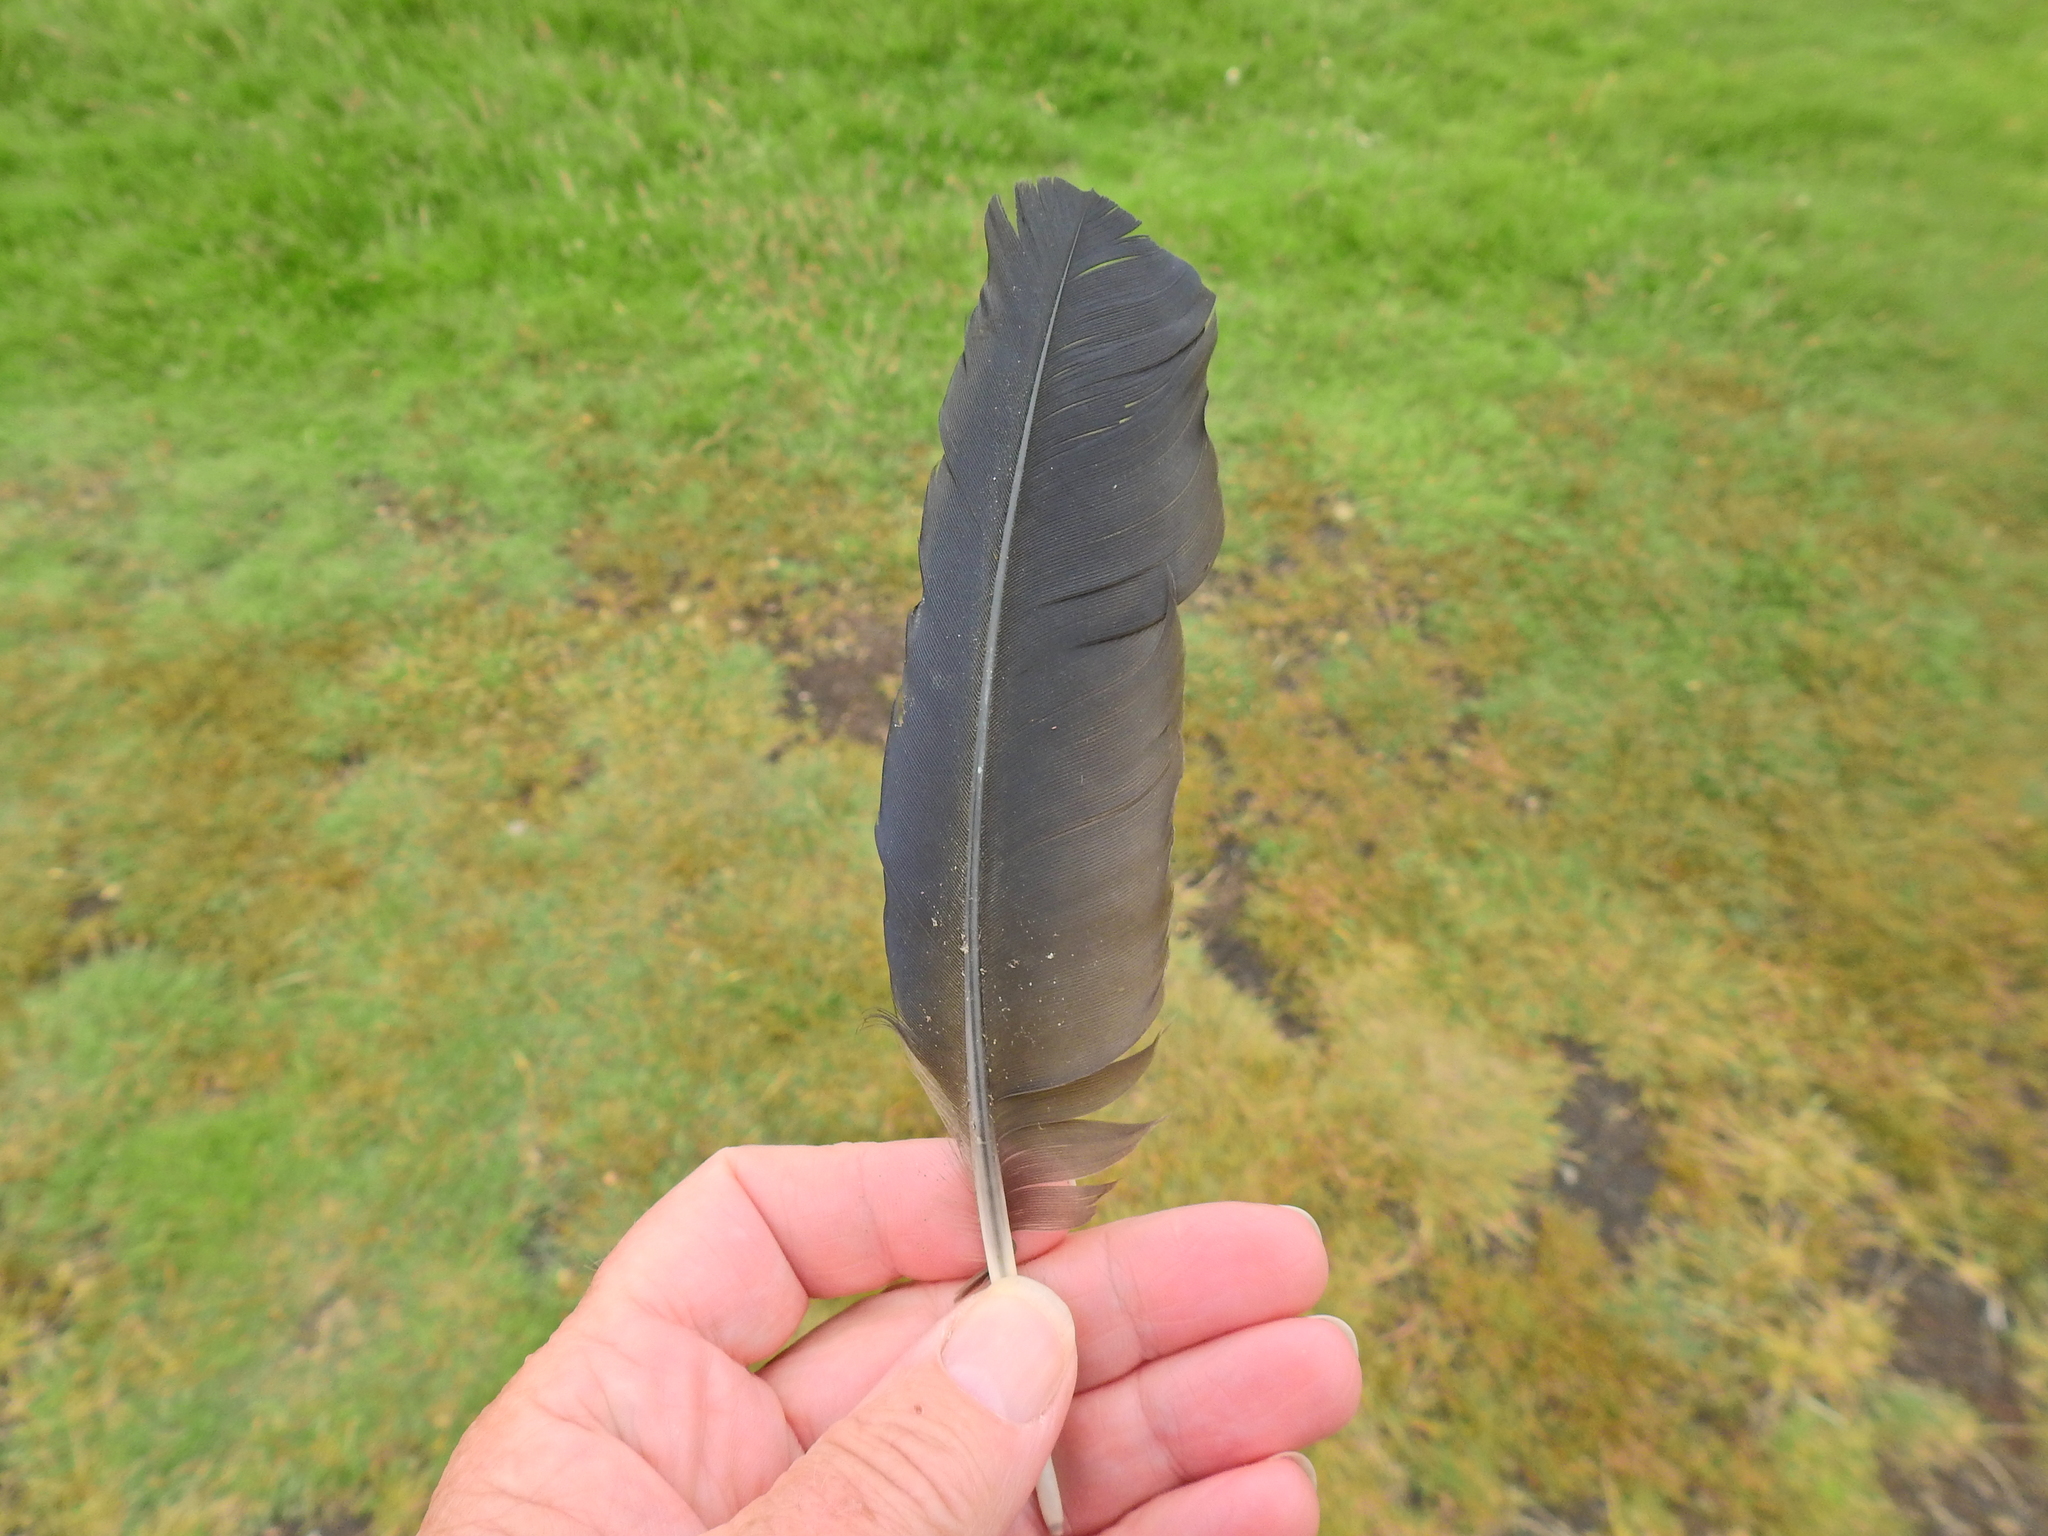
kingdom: Animalia
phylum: Chordata
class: Aves
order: Passeriformes
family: Corvidae
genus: Corvus
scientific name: Corvus corone
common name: Carrion crow
